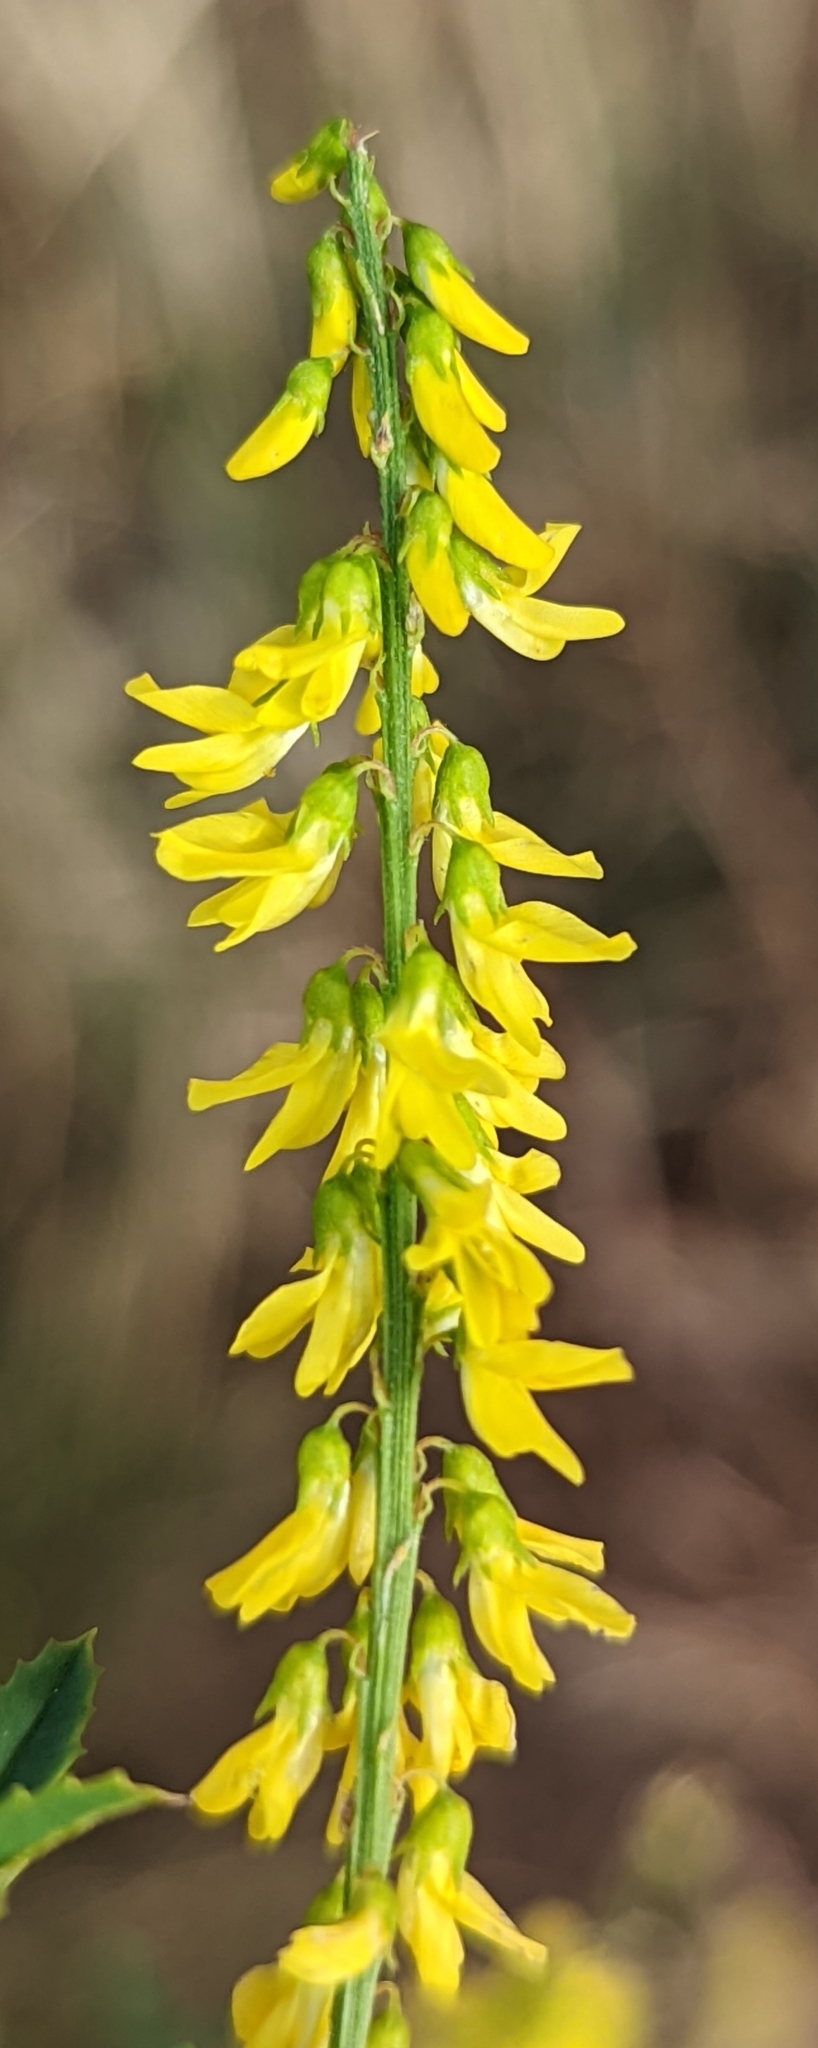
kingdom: Plantae
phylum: Tracheophyta
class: Magnoliopsida
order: Fabales
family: Fabaceae
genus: Melilotus
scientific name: Melilotus officinalis
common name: Sweetclover
